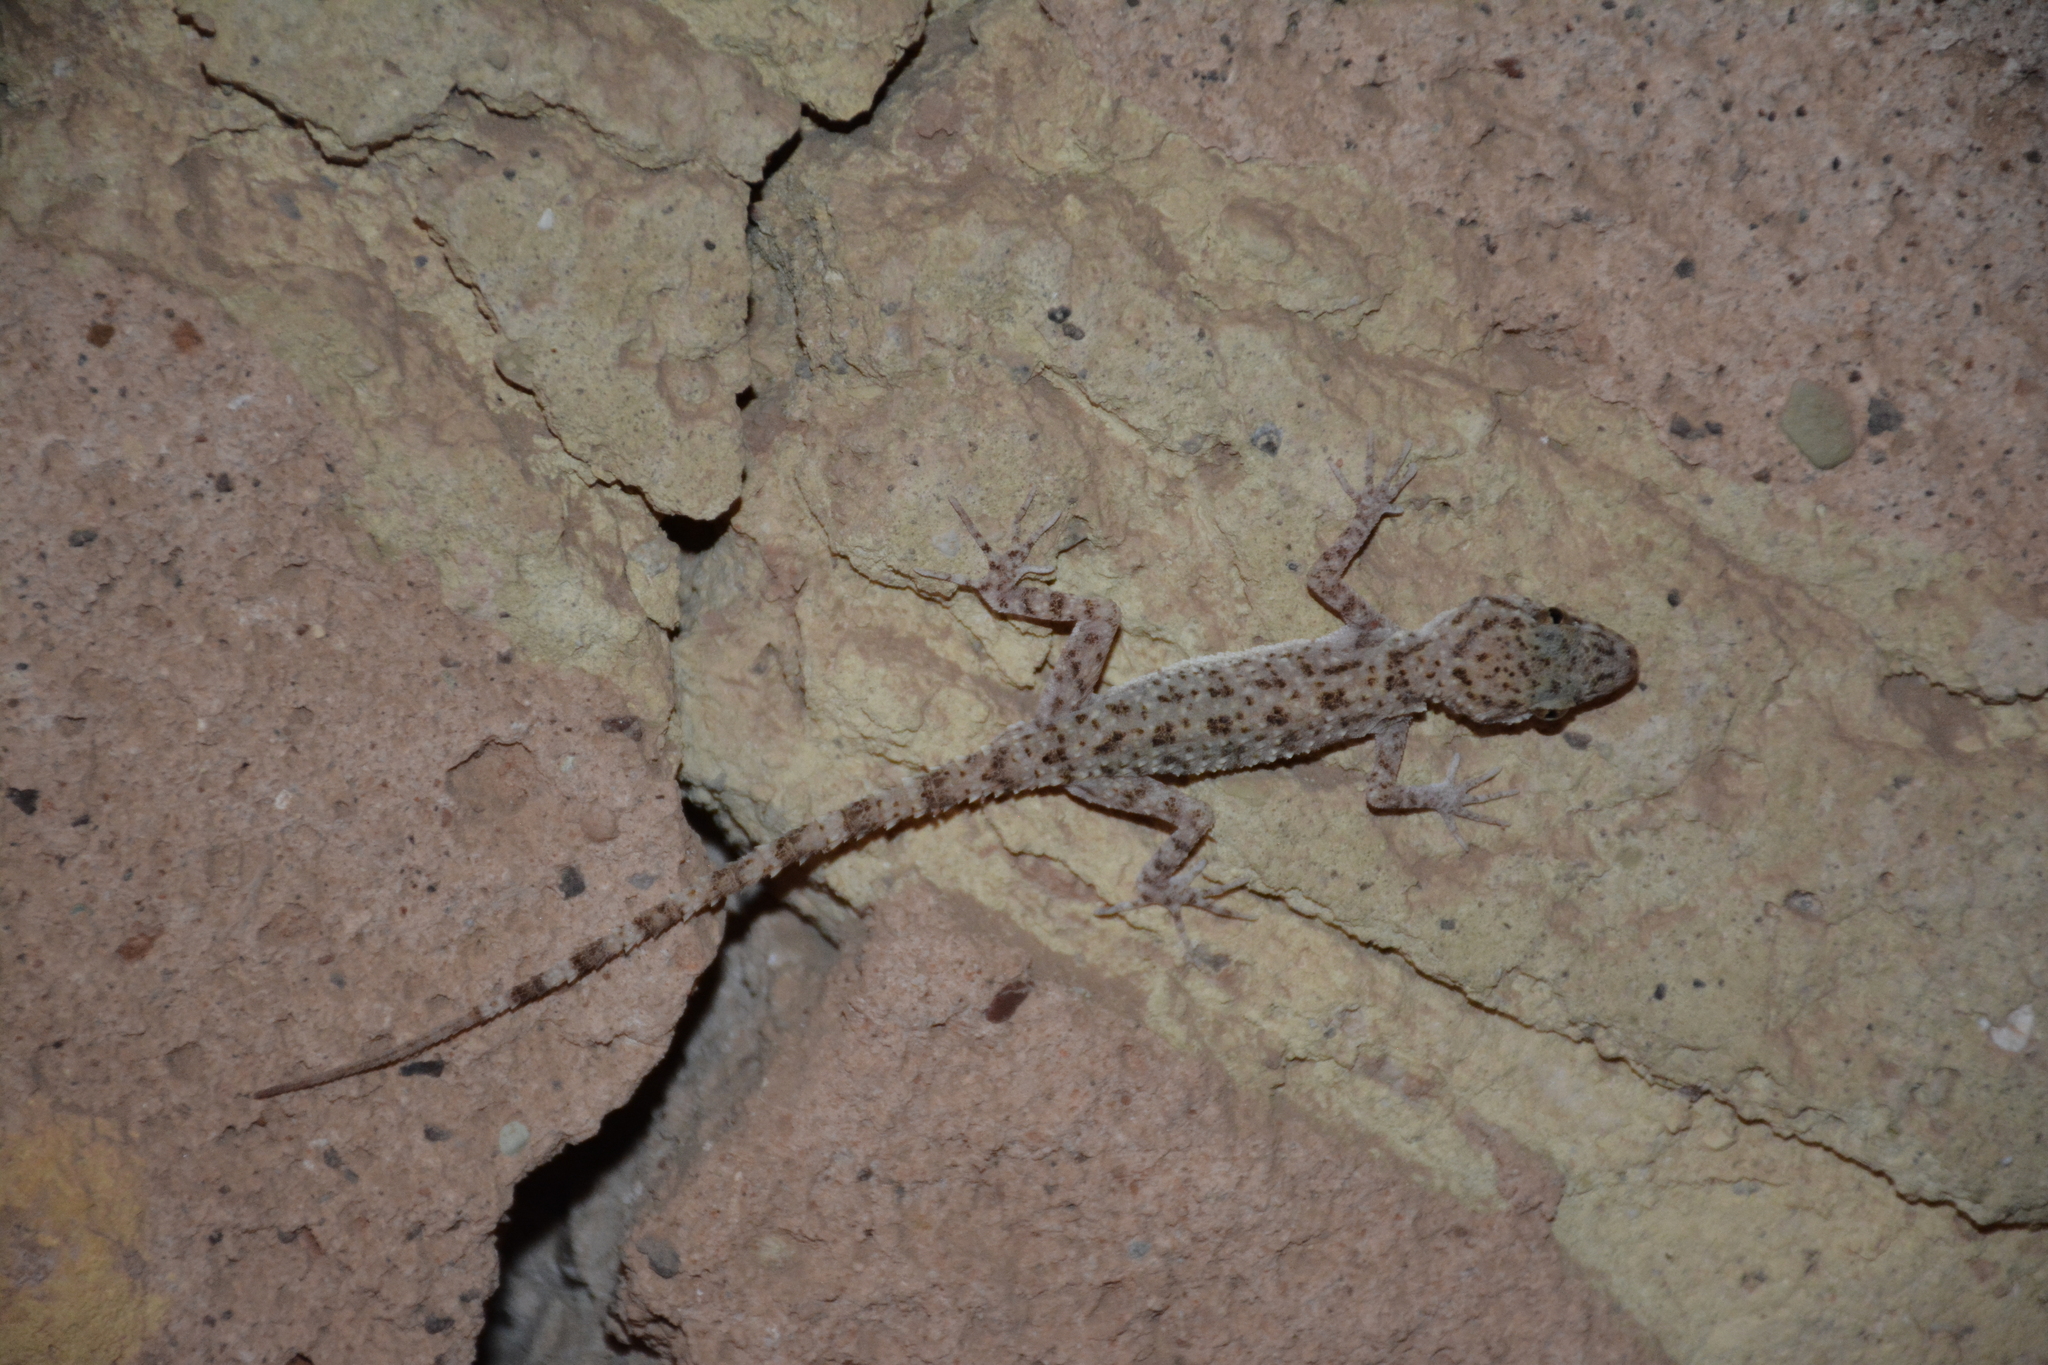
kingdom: Animalia
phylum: Chordata
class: Squamata
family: Gekkonidae
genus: Cyrtopodion
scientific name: Cyrtopodion scabrum
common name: Rough-tailed gecko
